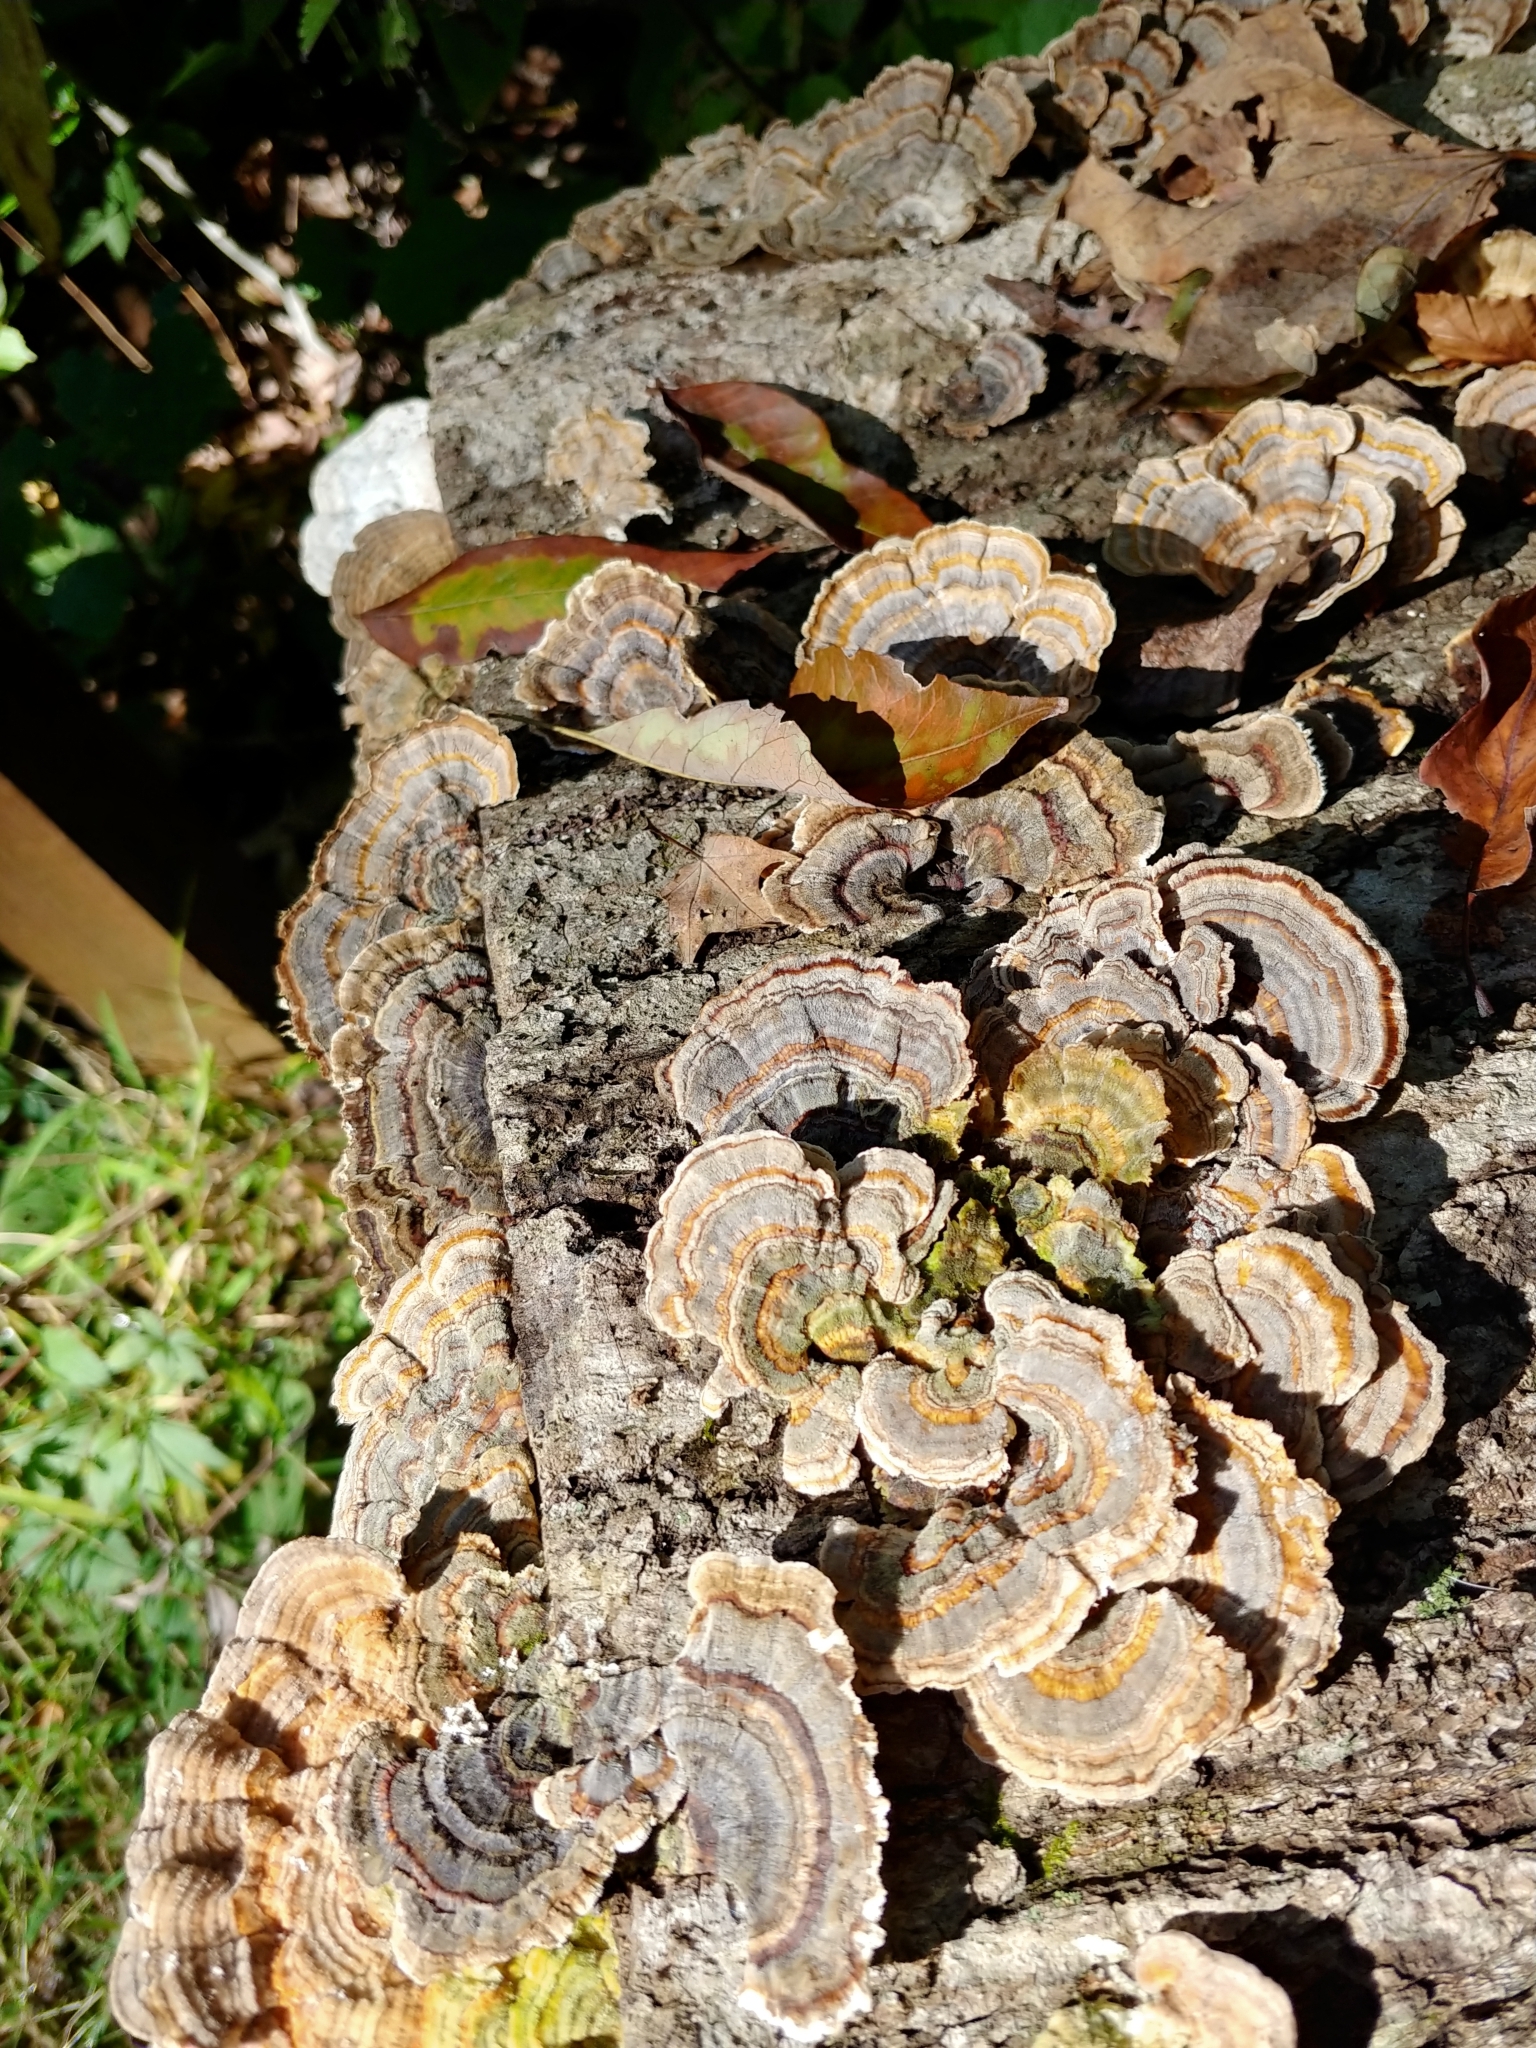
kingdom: Fungi
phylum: Basidiomycota
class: Agaricomycetes
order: Polyporales
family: Polyporaceae
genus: Trametes
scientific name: Trametes versicolor
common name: Turkeytail
